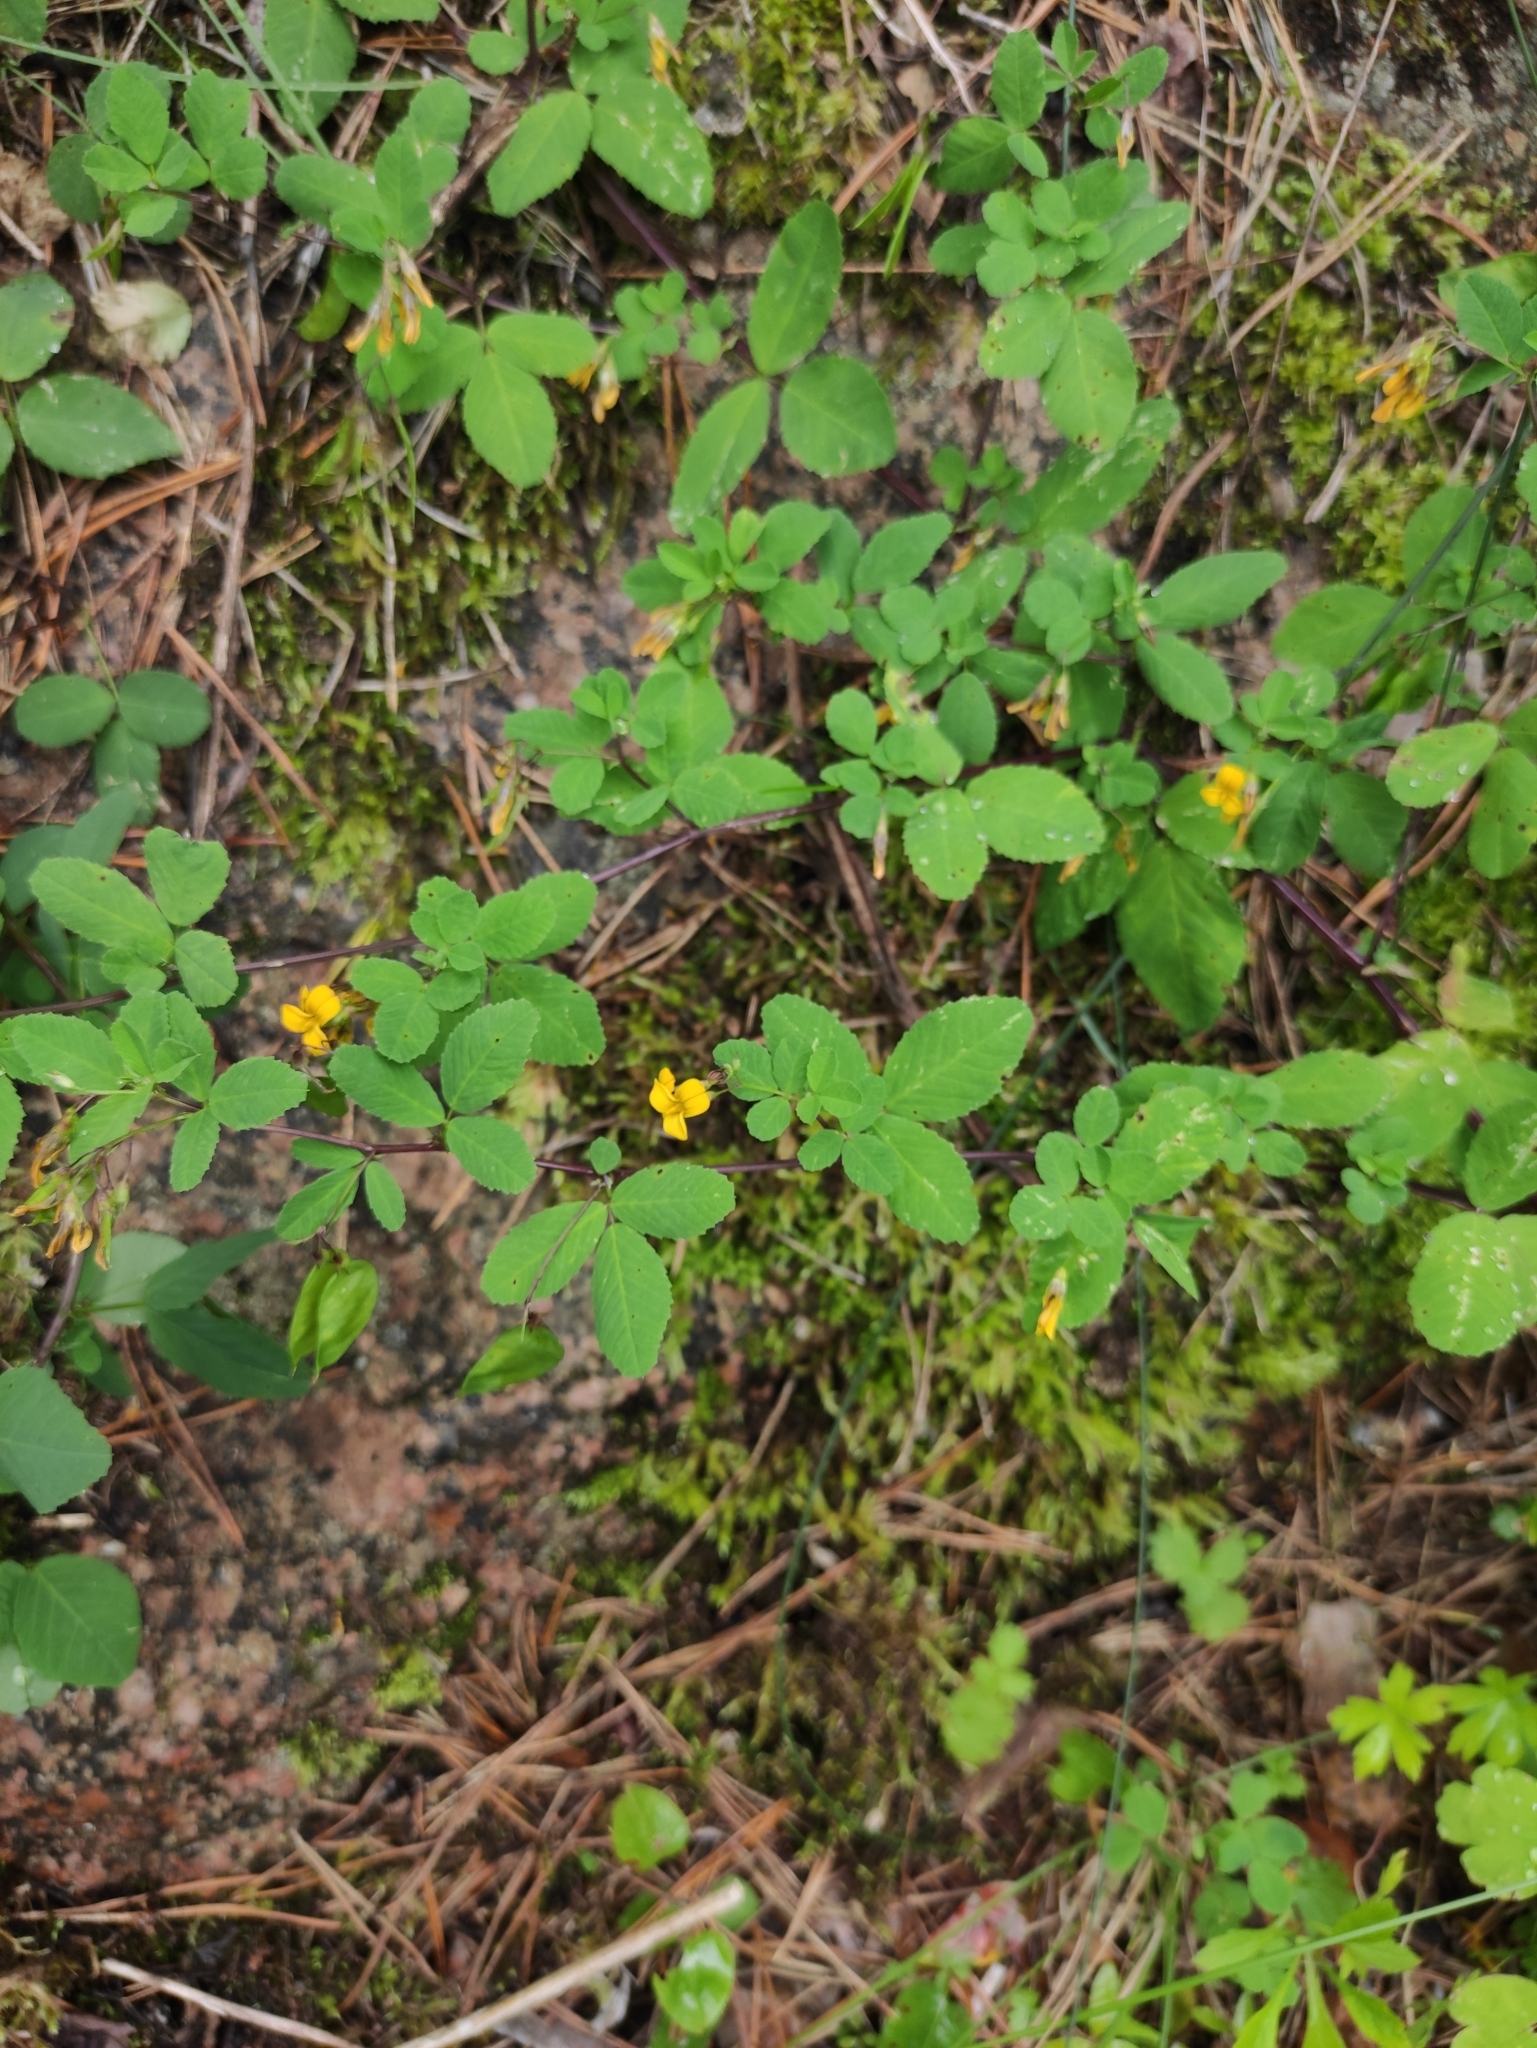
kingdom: Plantae
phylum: Tracheophyta
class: Magnoliopsida
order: Fabales
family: Fabaceae
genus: Medicago
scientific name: Medicago platycarpos
